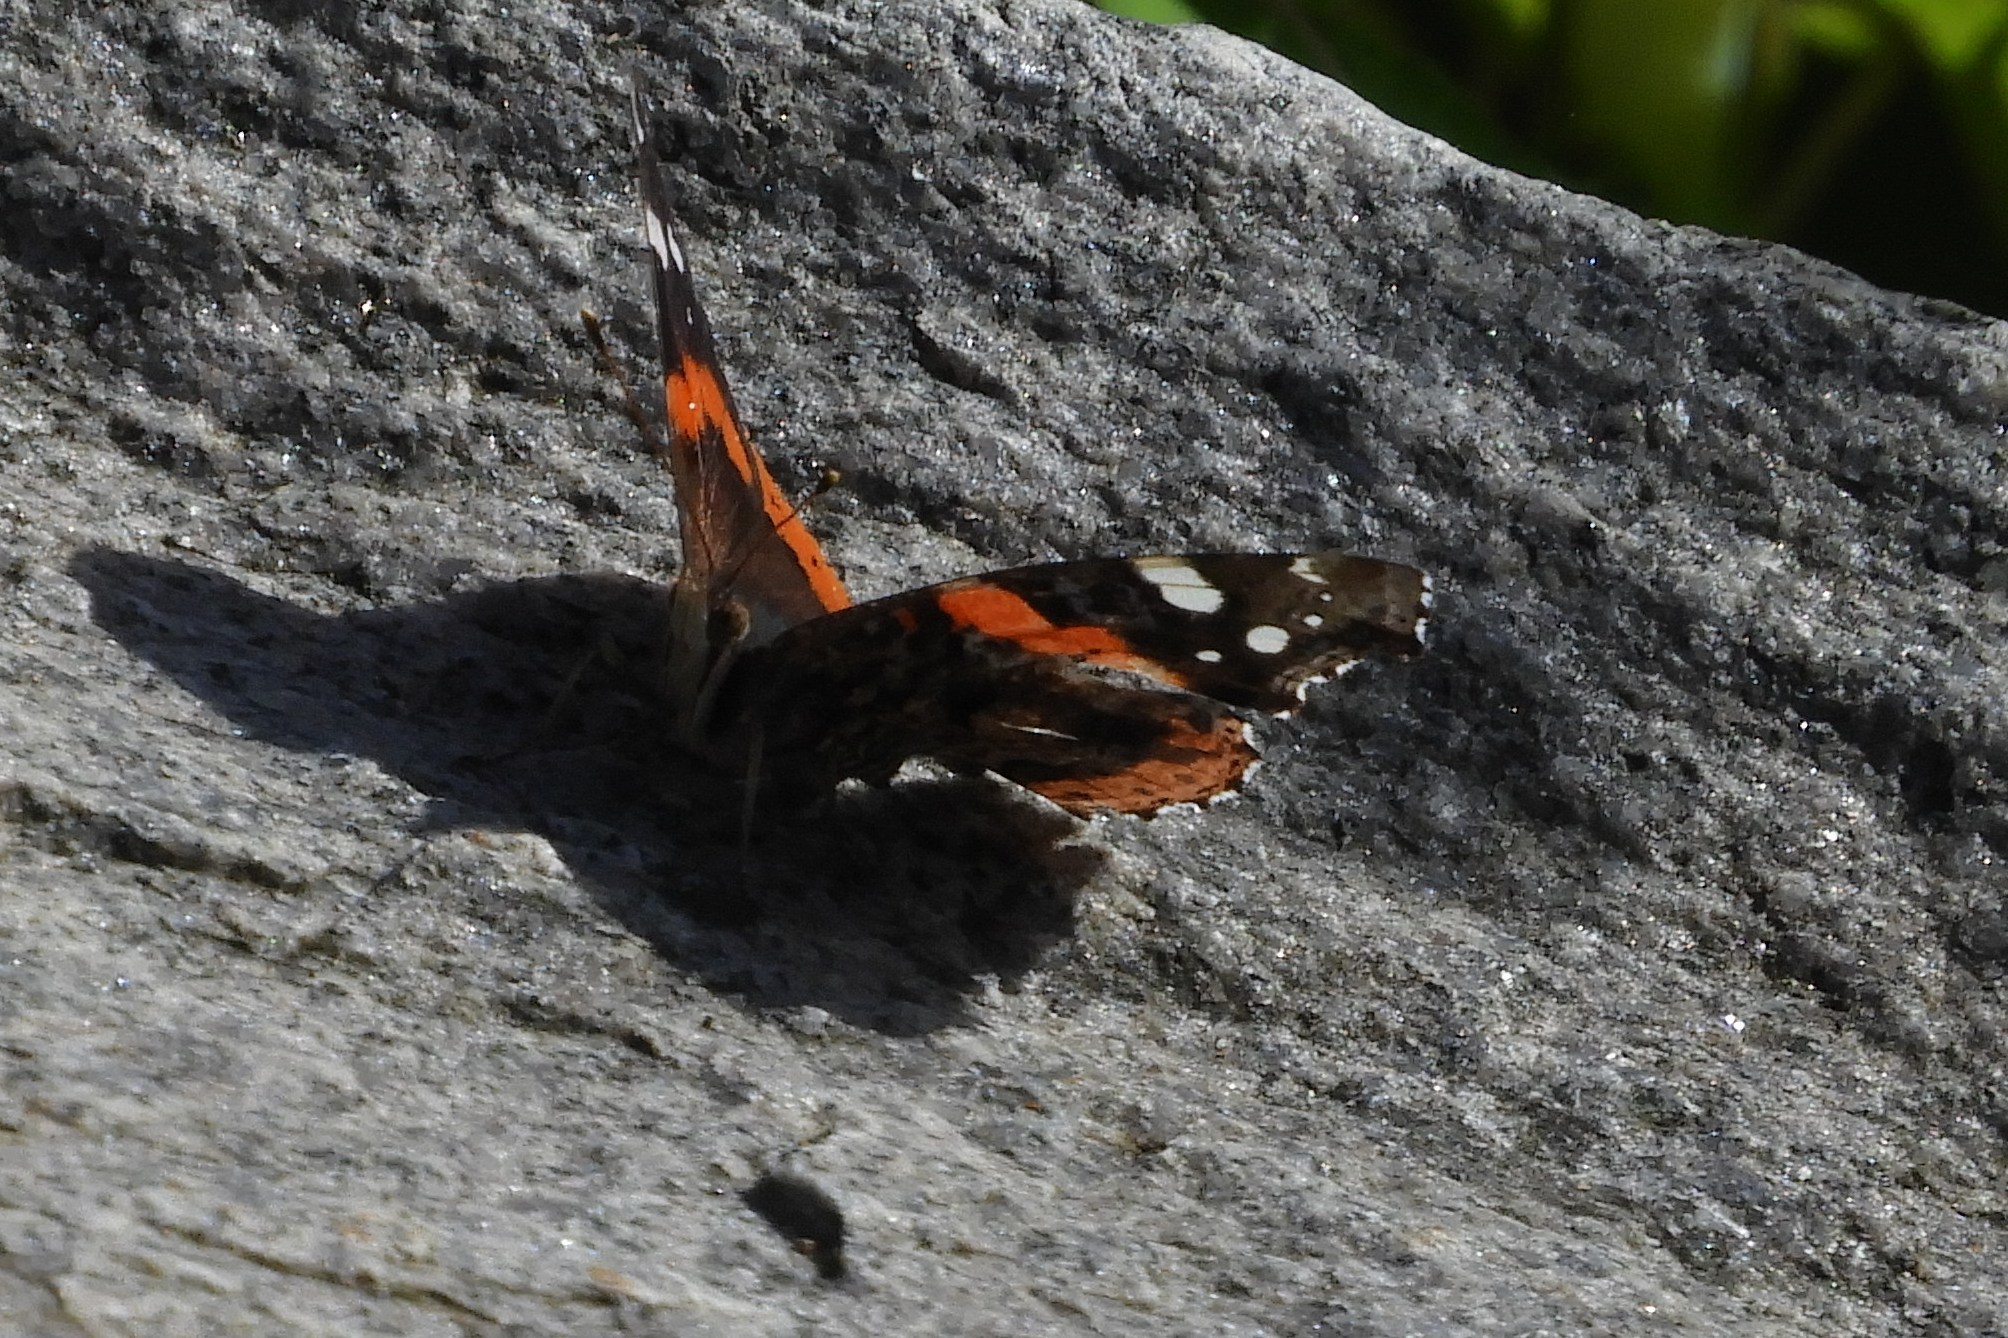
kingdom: Animalia
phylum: Arthropoda
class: Insecta
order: Lepidoptera
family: Nymphalidae
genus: Vanessa
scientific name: Vanessa atalanta
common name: Red admiral
